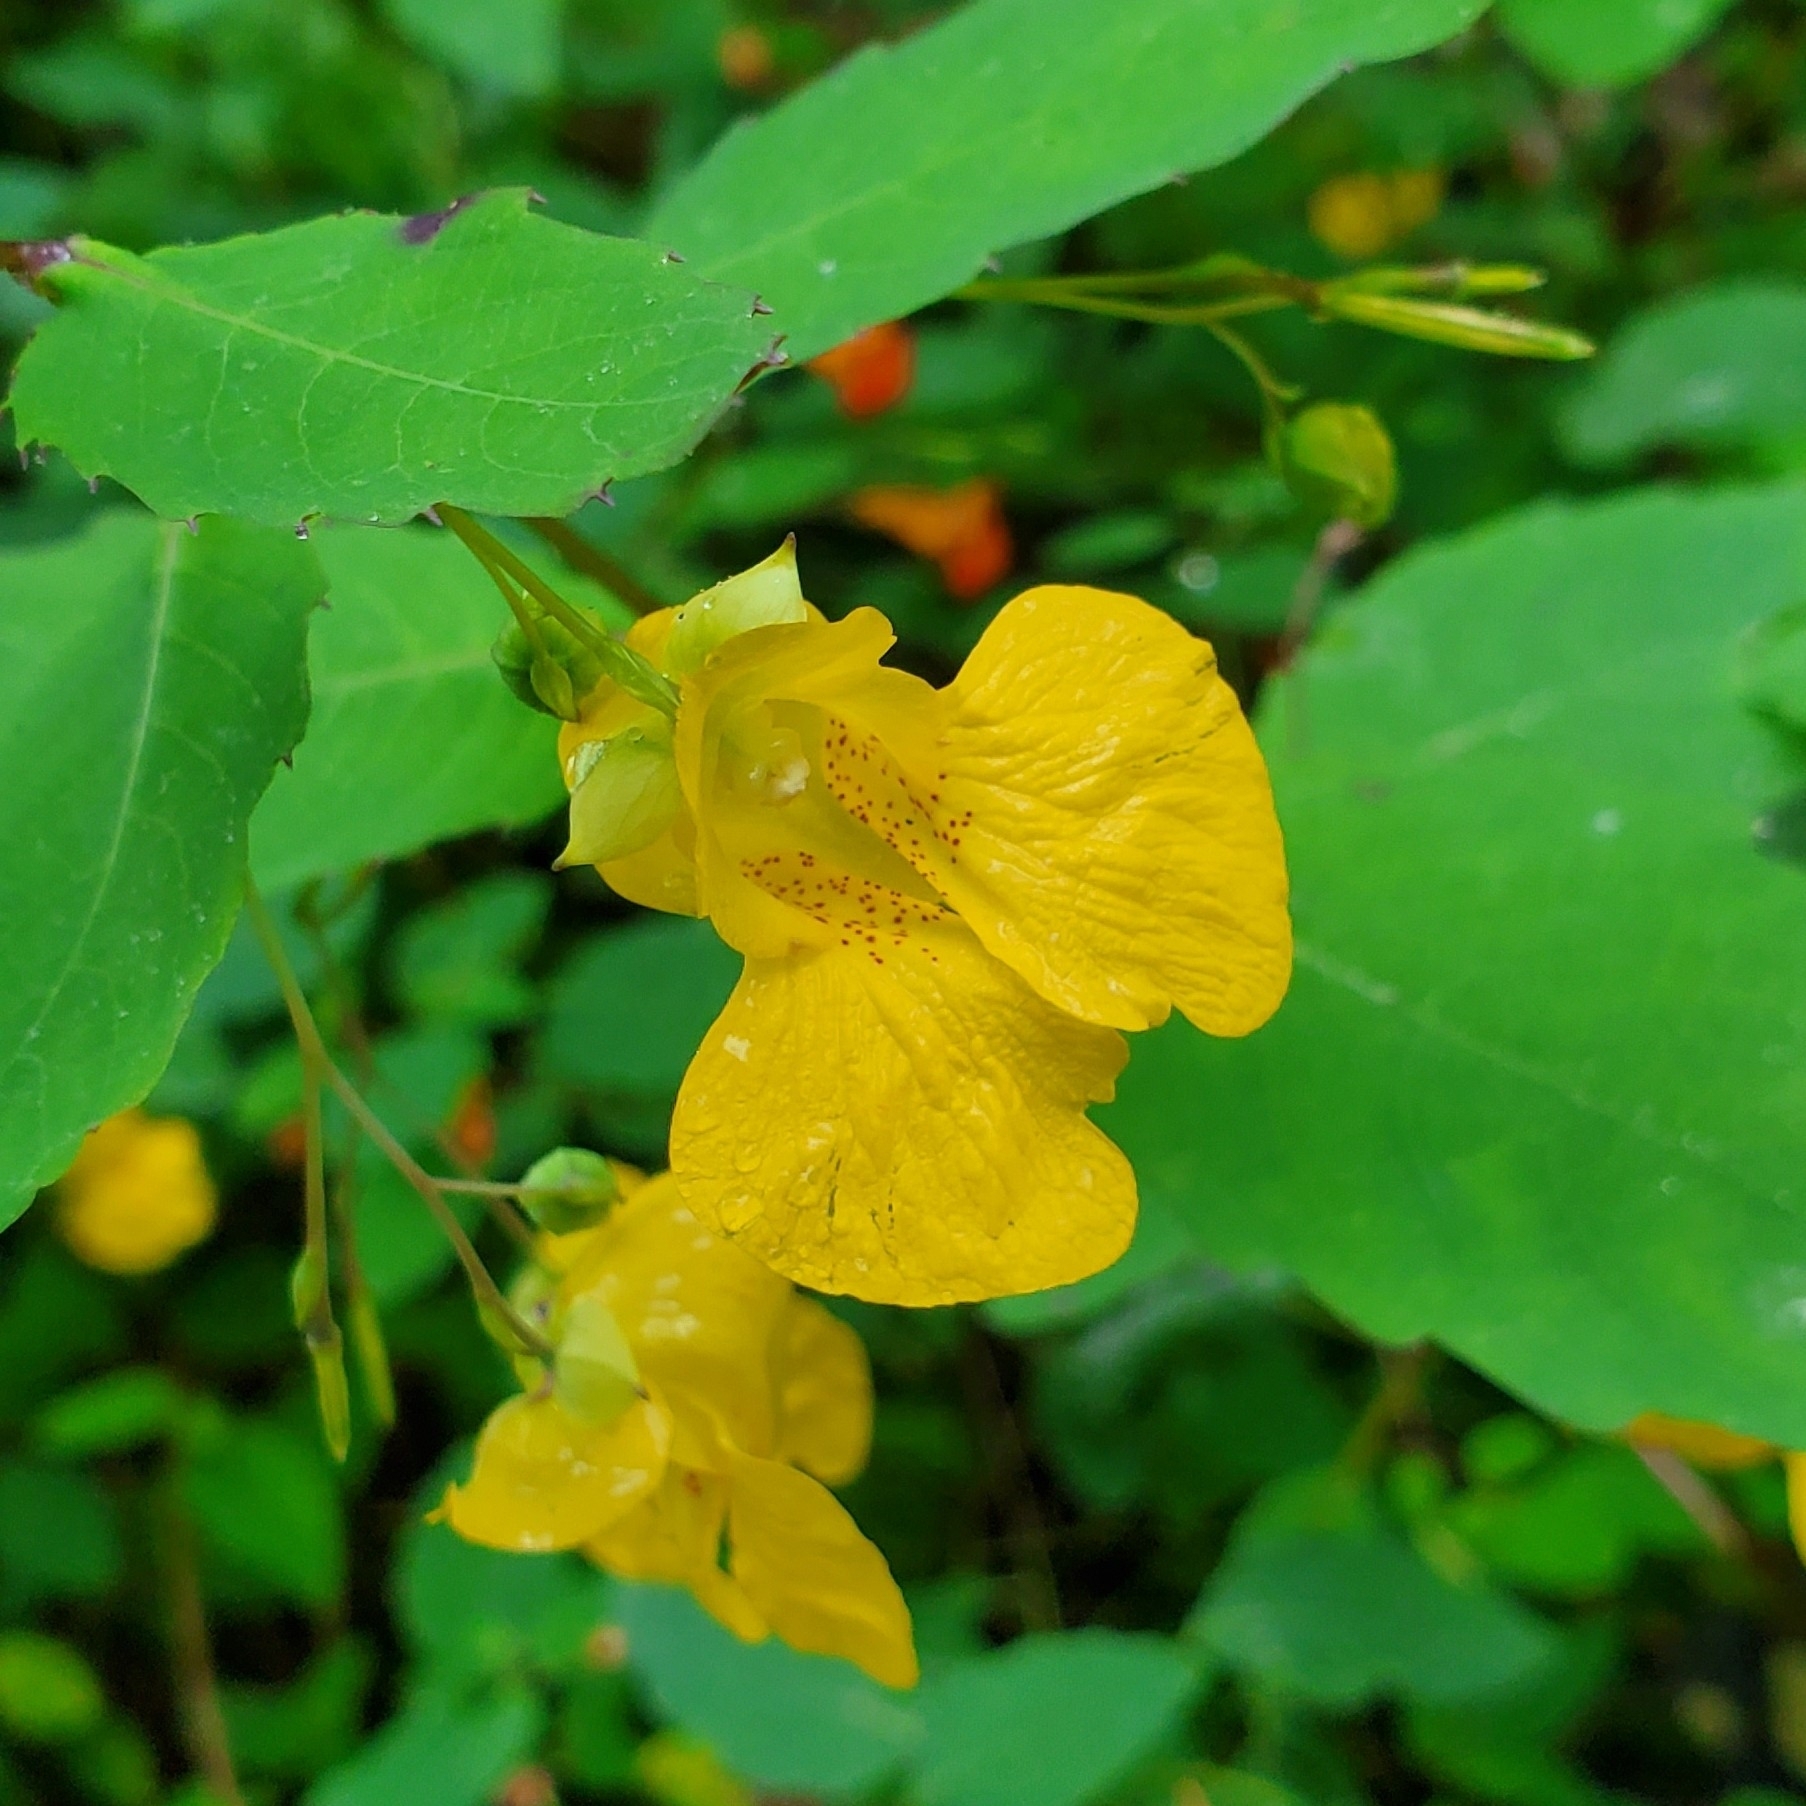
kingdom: Plantae
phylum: Tracheophyta
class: Magnoliopsida
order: Ericales
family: Balsaminaceae
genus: Impatiens
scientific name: Impatiens pallida
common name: Pale snapweed
